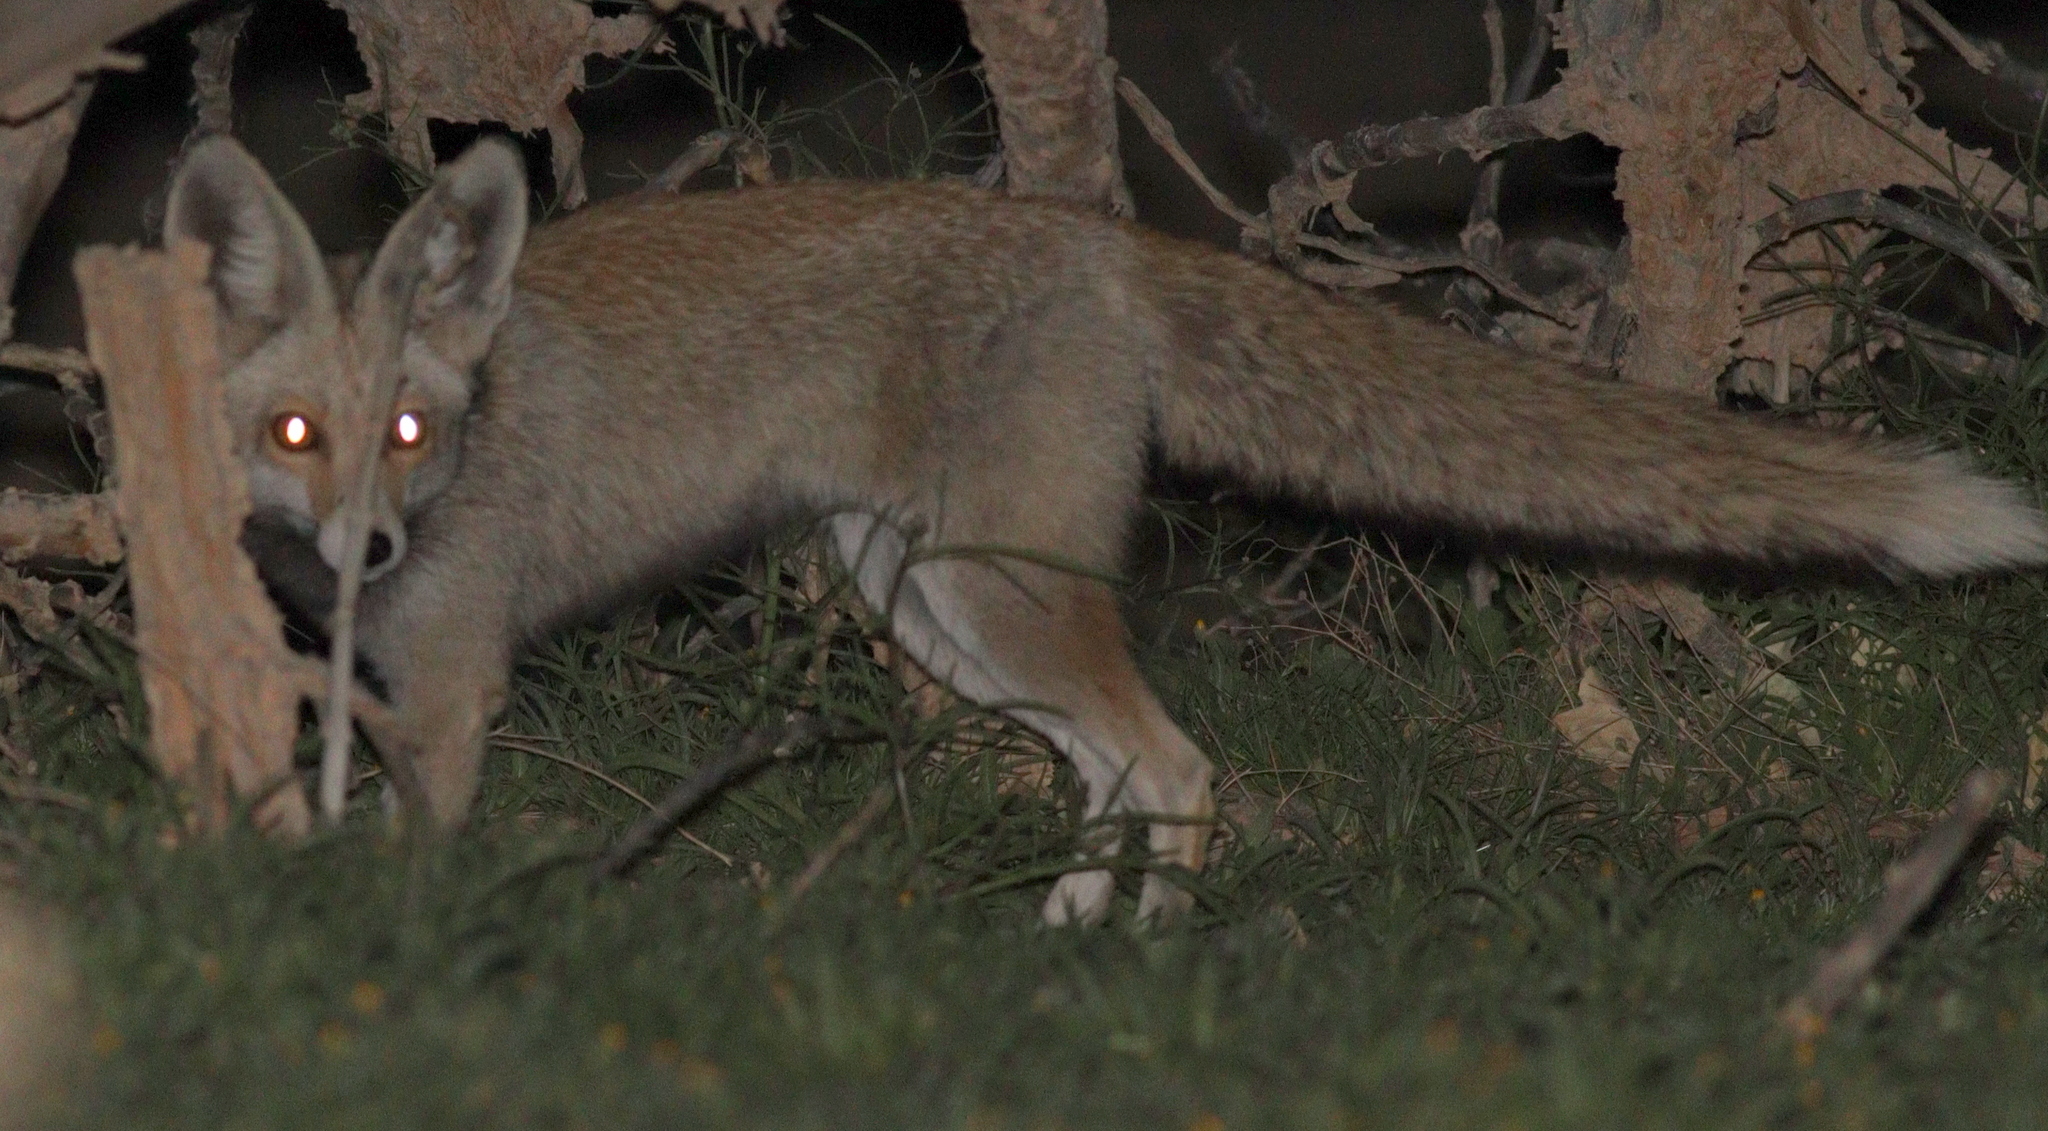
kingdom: Animalia
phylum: Chordata
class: Mammalia
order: Carnivora
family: Canidae
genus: Vulpes
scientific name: Vulpes vulpes
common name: Red fox
